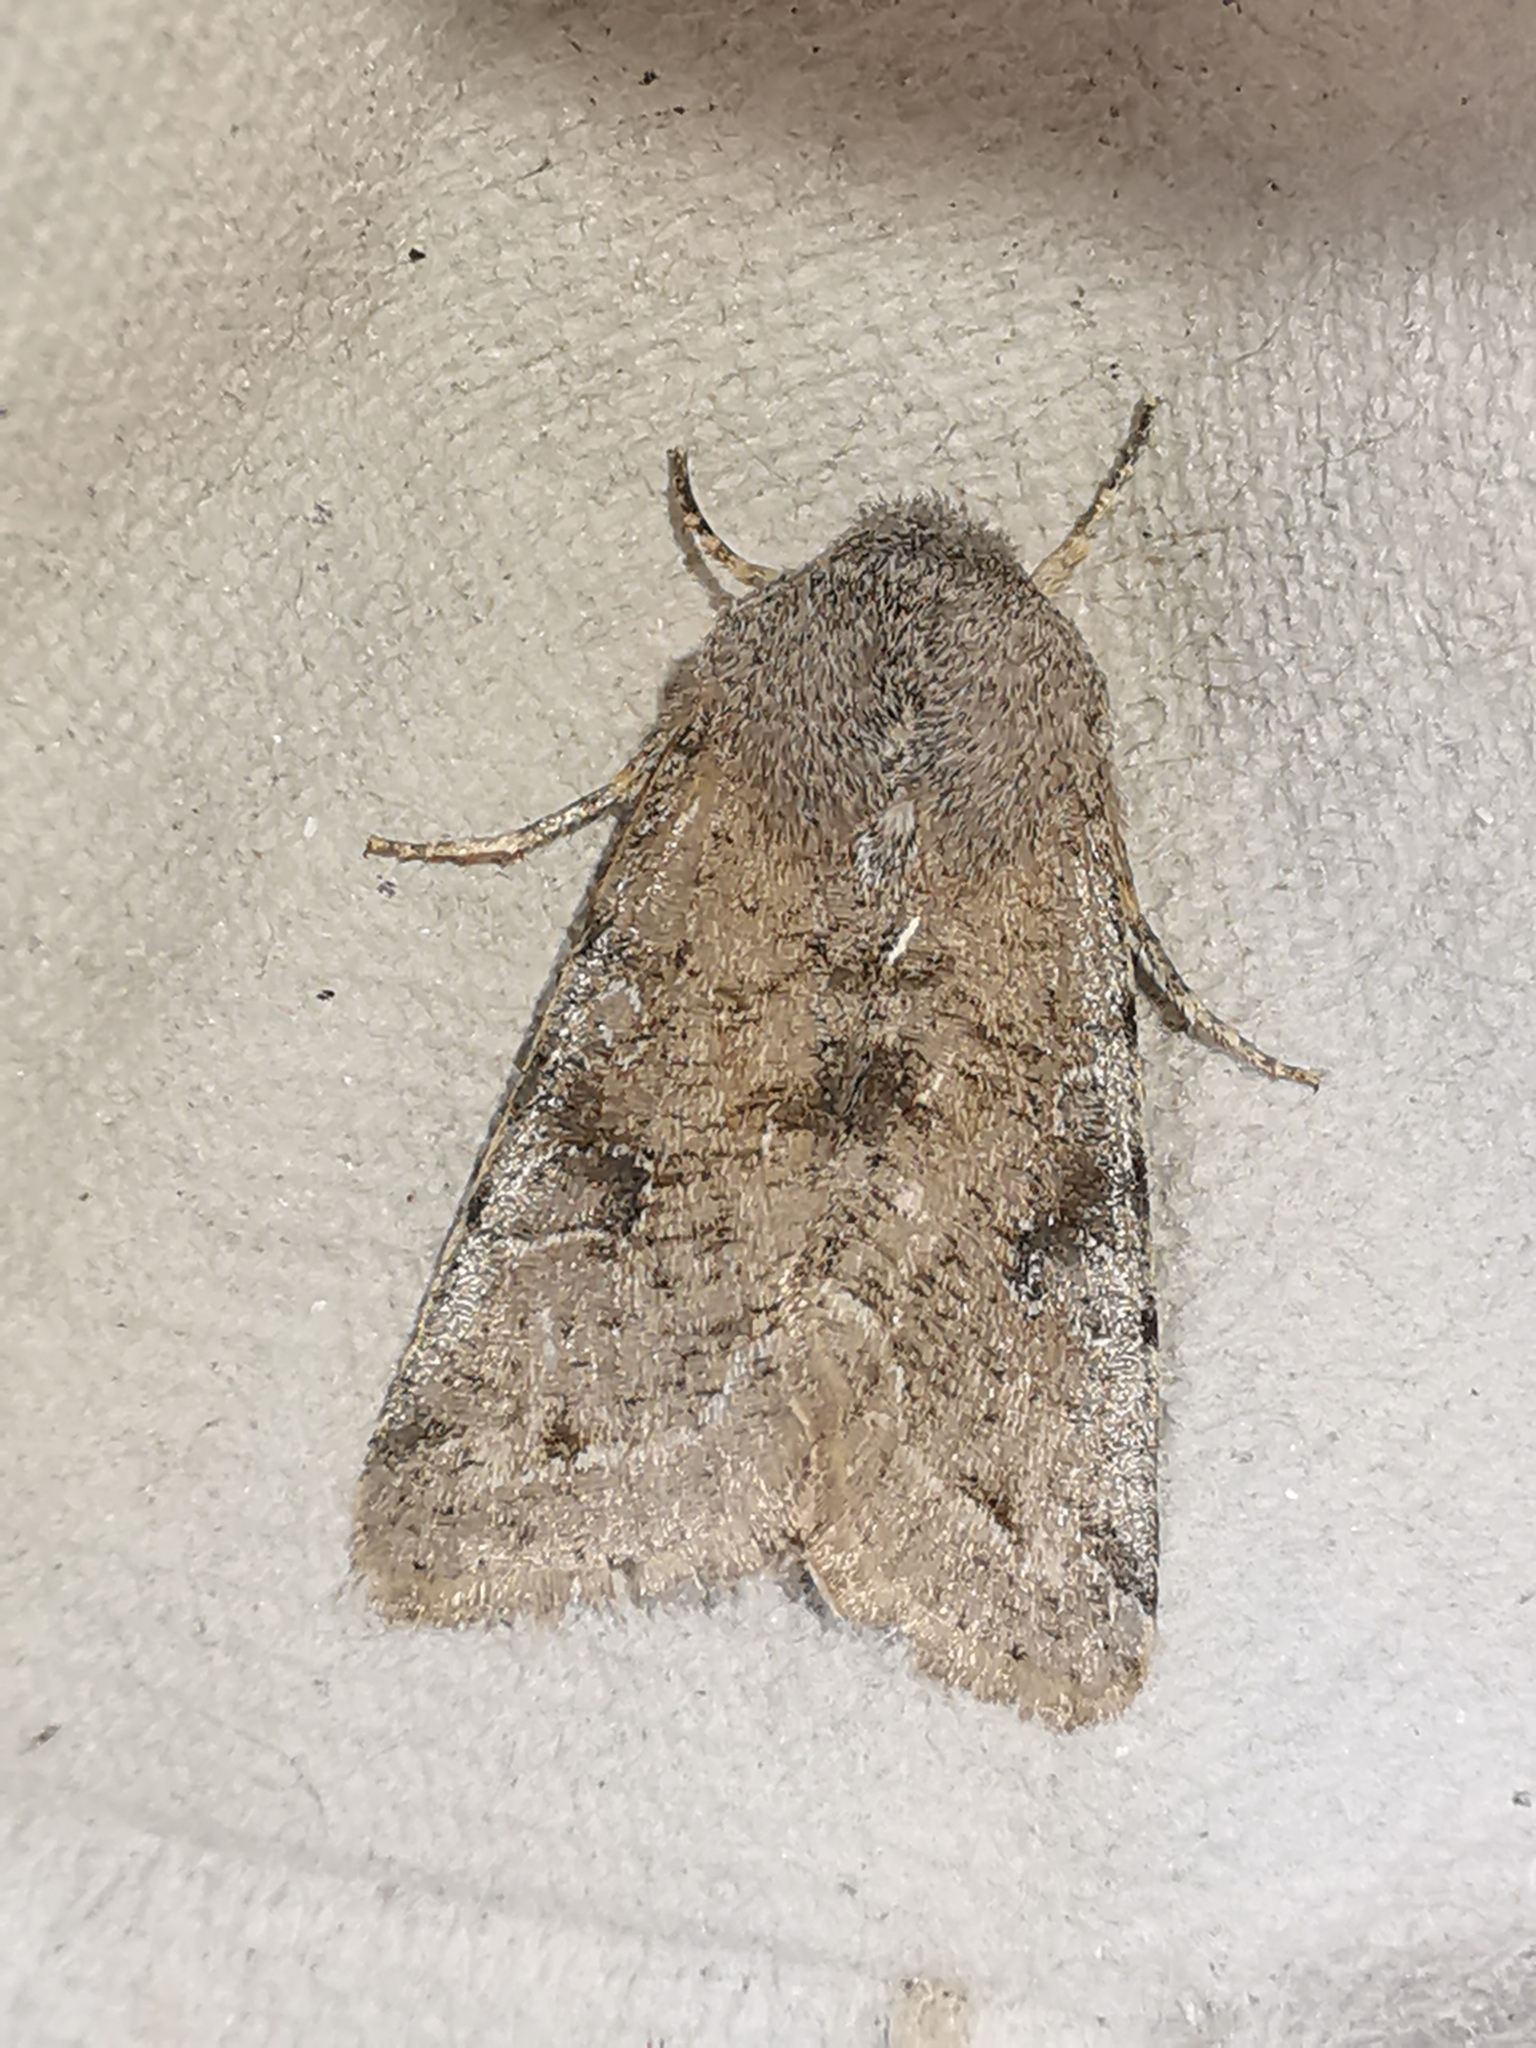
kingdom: Animalia
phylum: Arthropoda
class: Insecta
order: Lepidoptera
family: Noctuidae
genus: Orthosia
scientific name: Orthosia incerta
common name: Clouded drab
